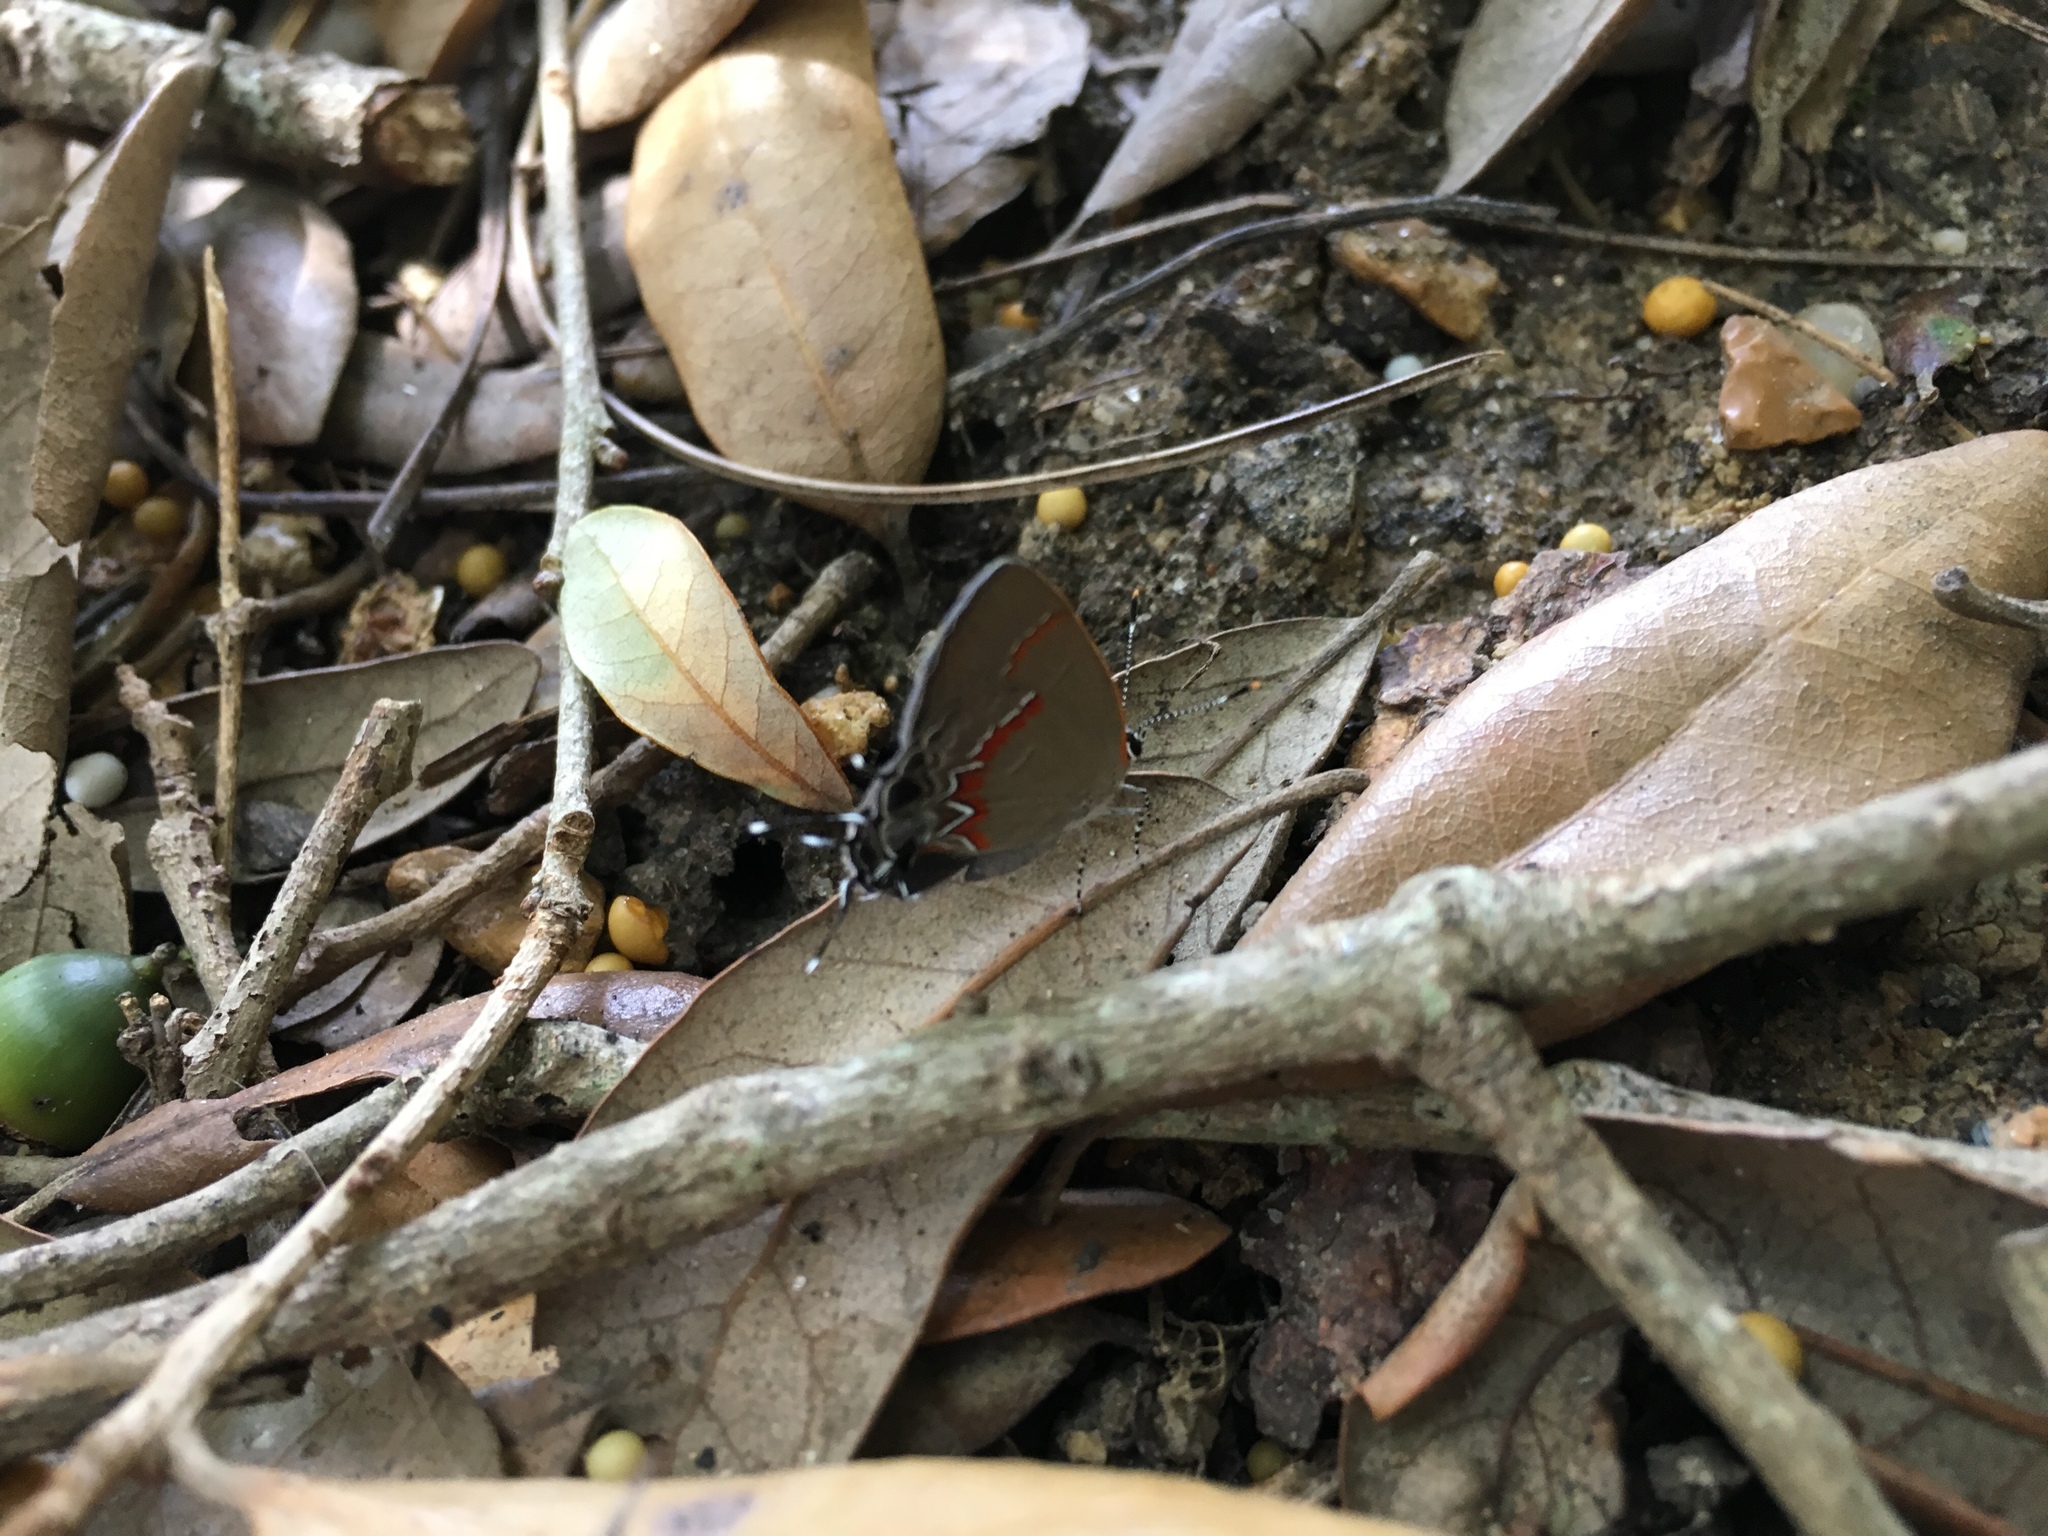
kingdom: Animalia
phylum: Arthropoda
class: Insecta
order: Lepidoptera
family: Lycaenidae
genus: Calycopis
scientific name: Calycopis cecrops
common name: Red-banded hairstreak
